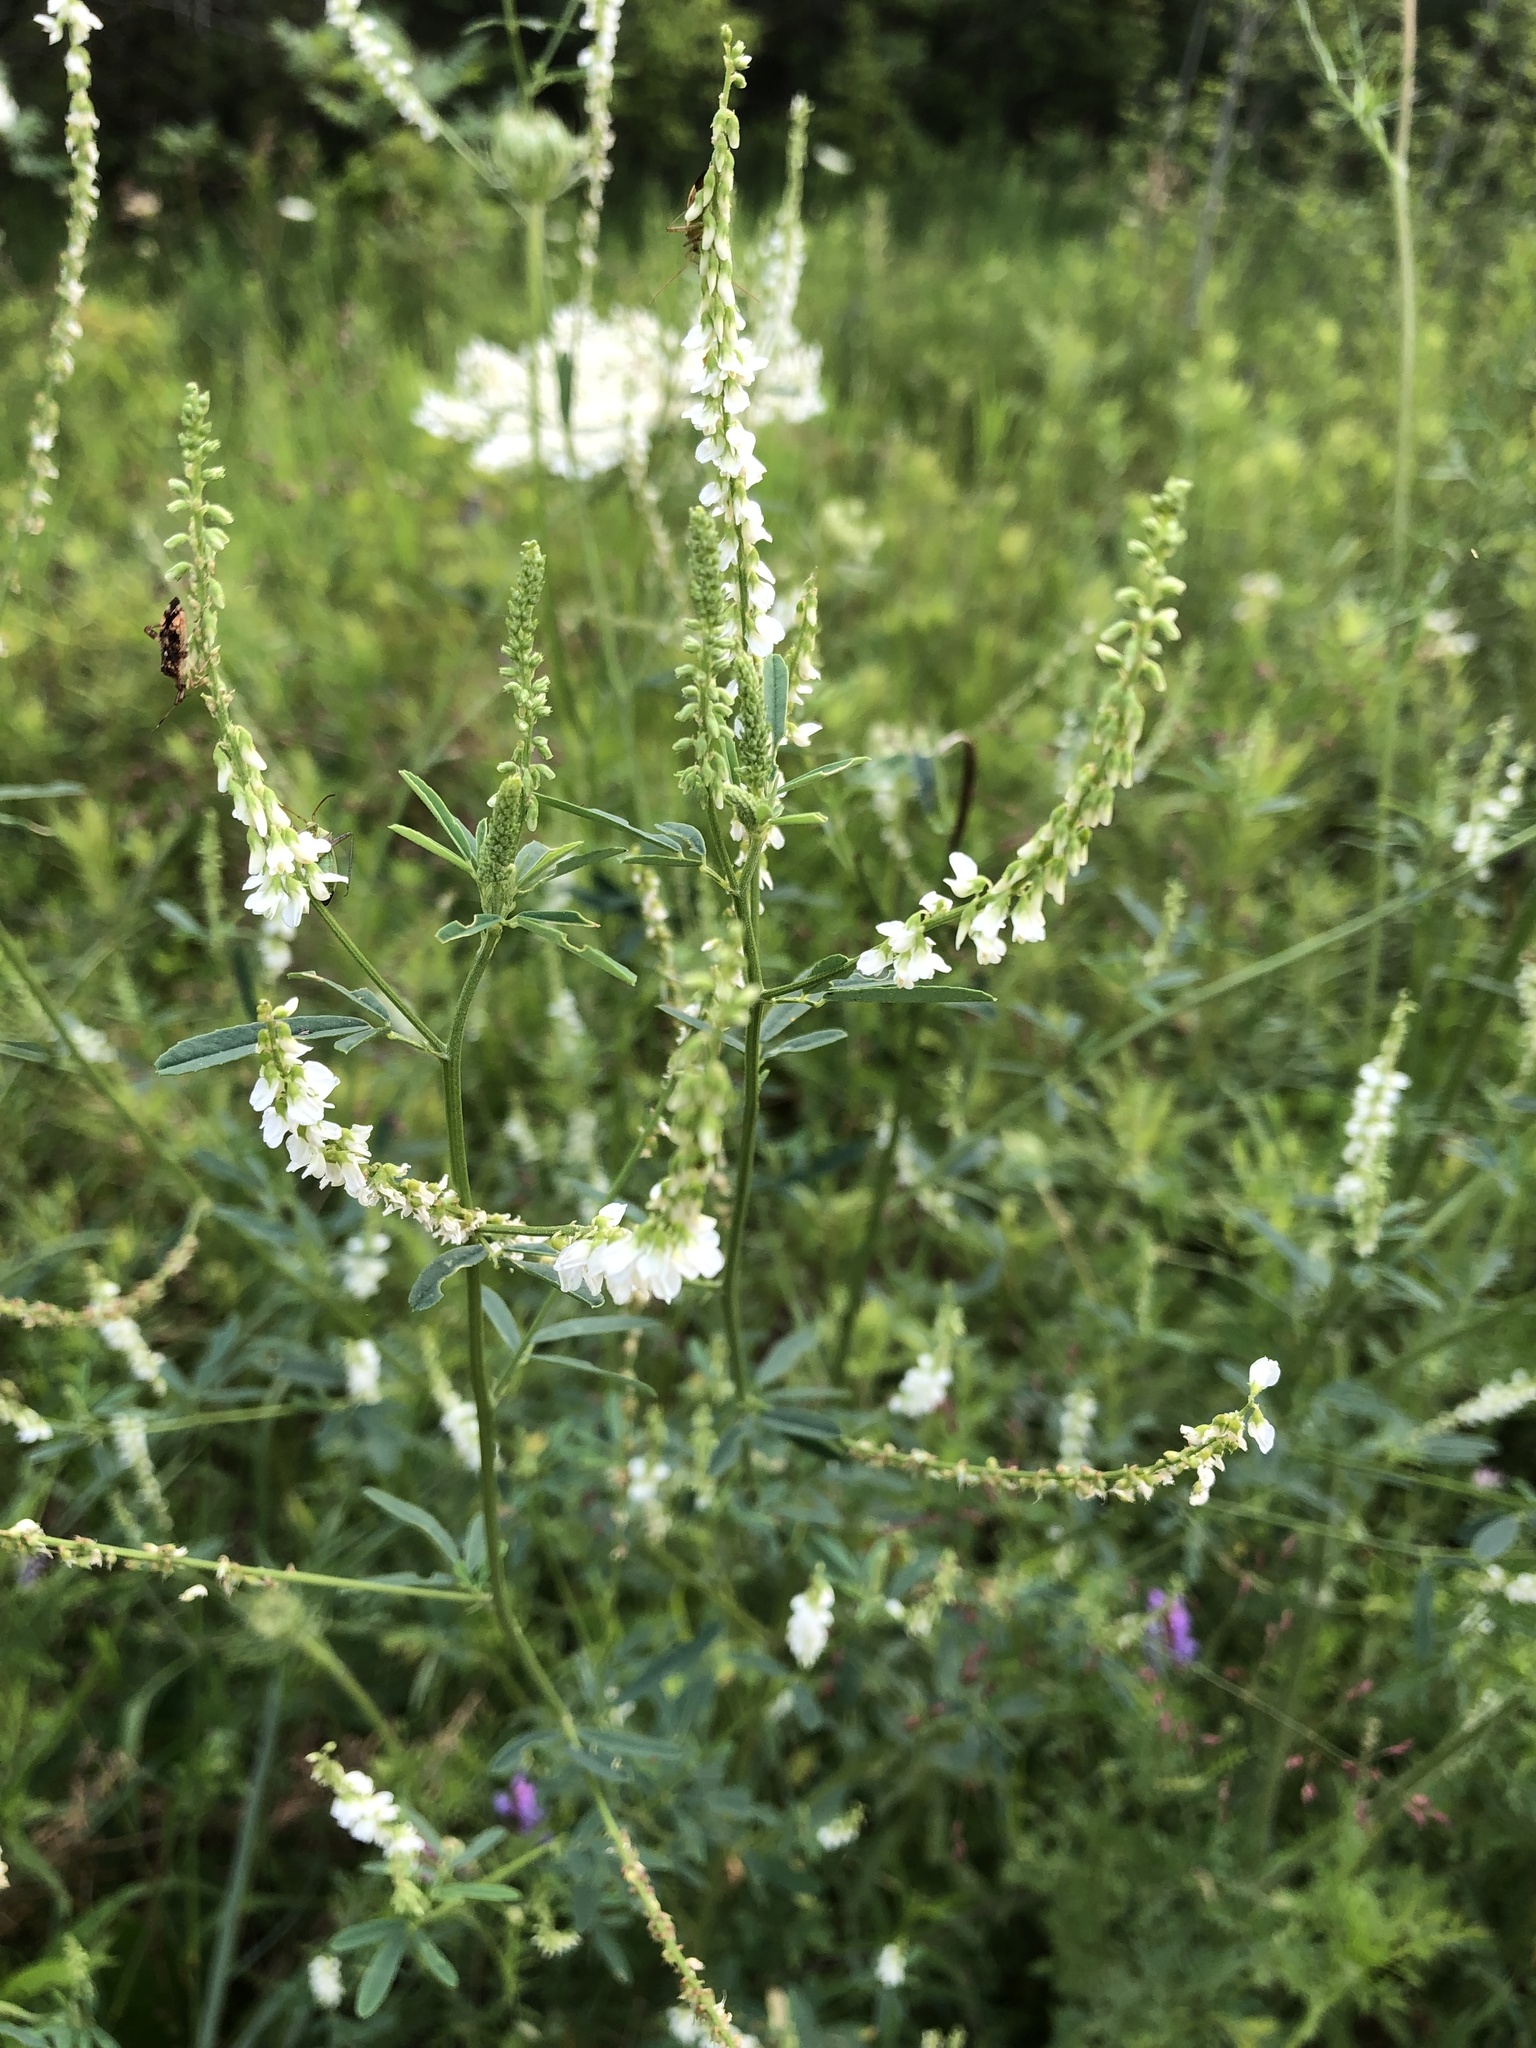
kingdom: Plantae
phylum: Tracheophyta
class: Magnoliopsida
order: Fabales
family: Fabaceae
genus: Melilotus
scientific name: Melilotus albus
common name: White melilot
